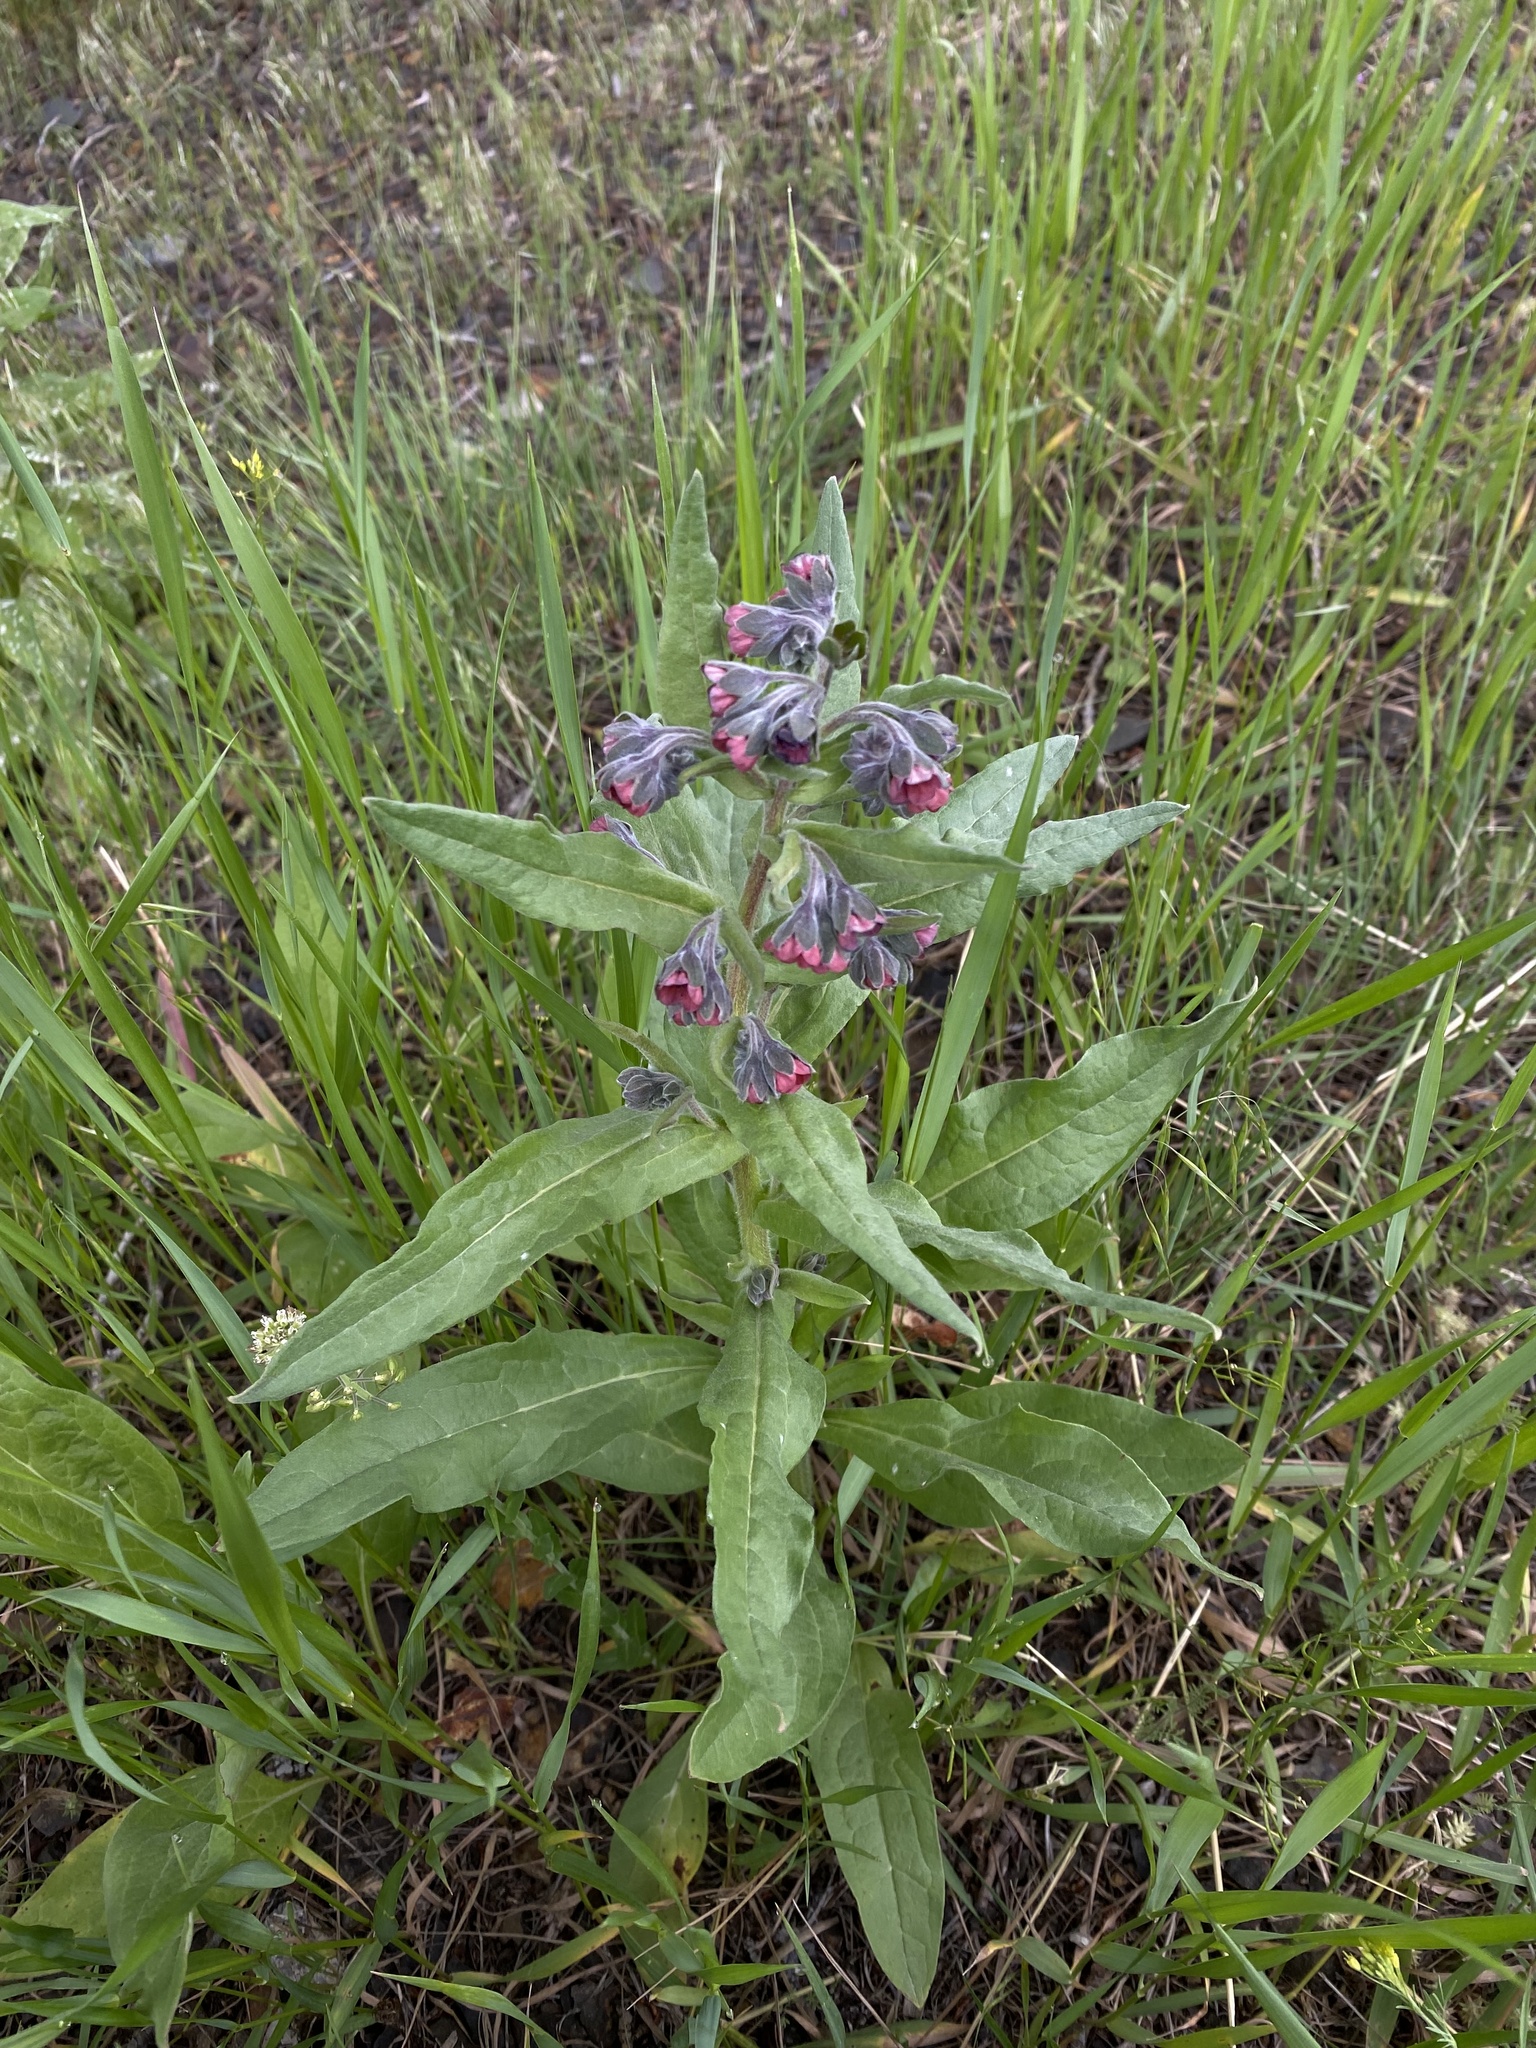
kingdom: Plantae
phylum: Tracheophyta
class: Magnoliopsida
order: Boraginales
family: Boraginaceae
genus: Cynoglossum
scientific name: Cynoglossum officinale
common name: Hound's-tongue
